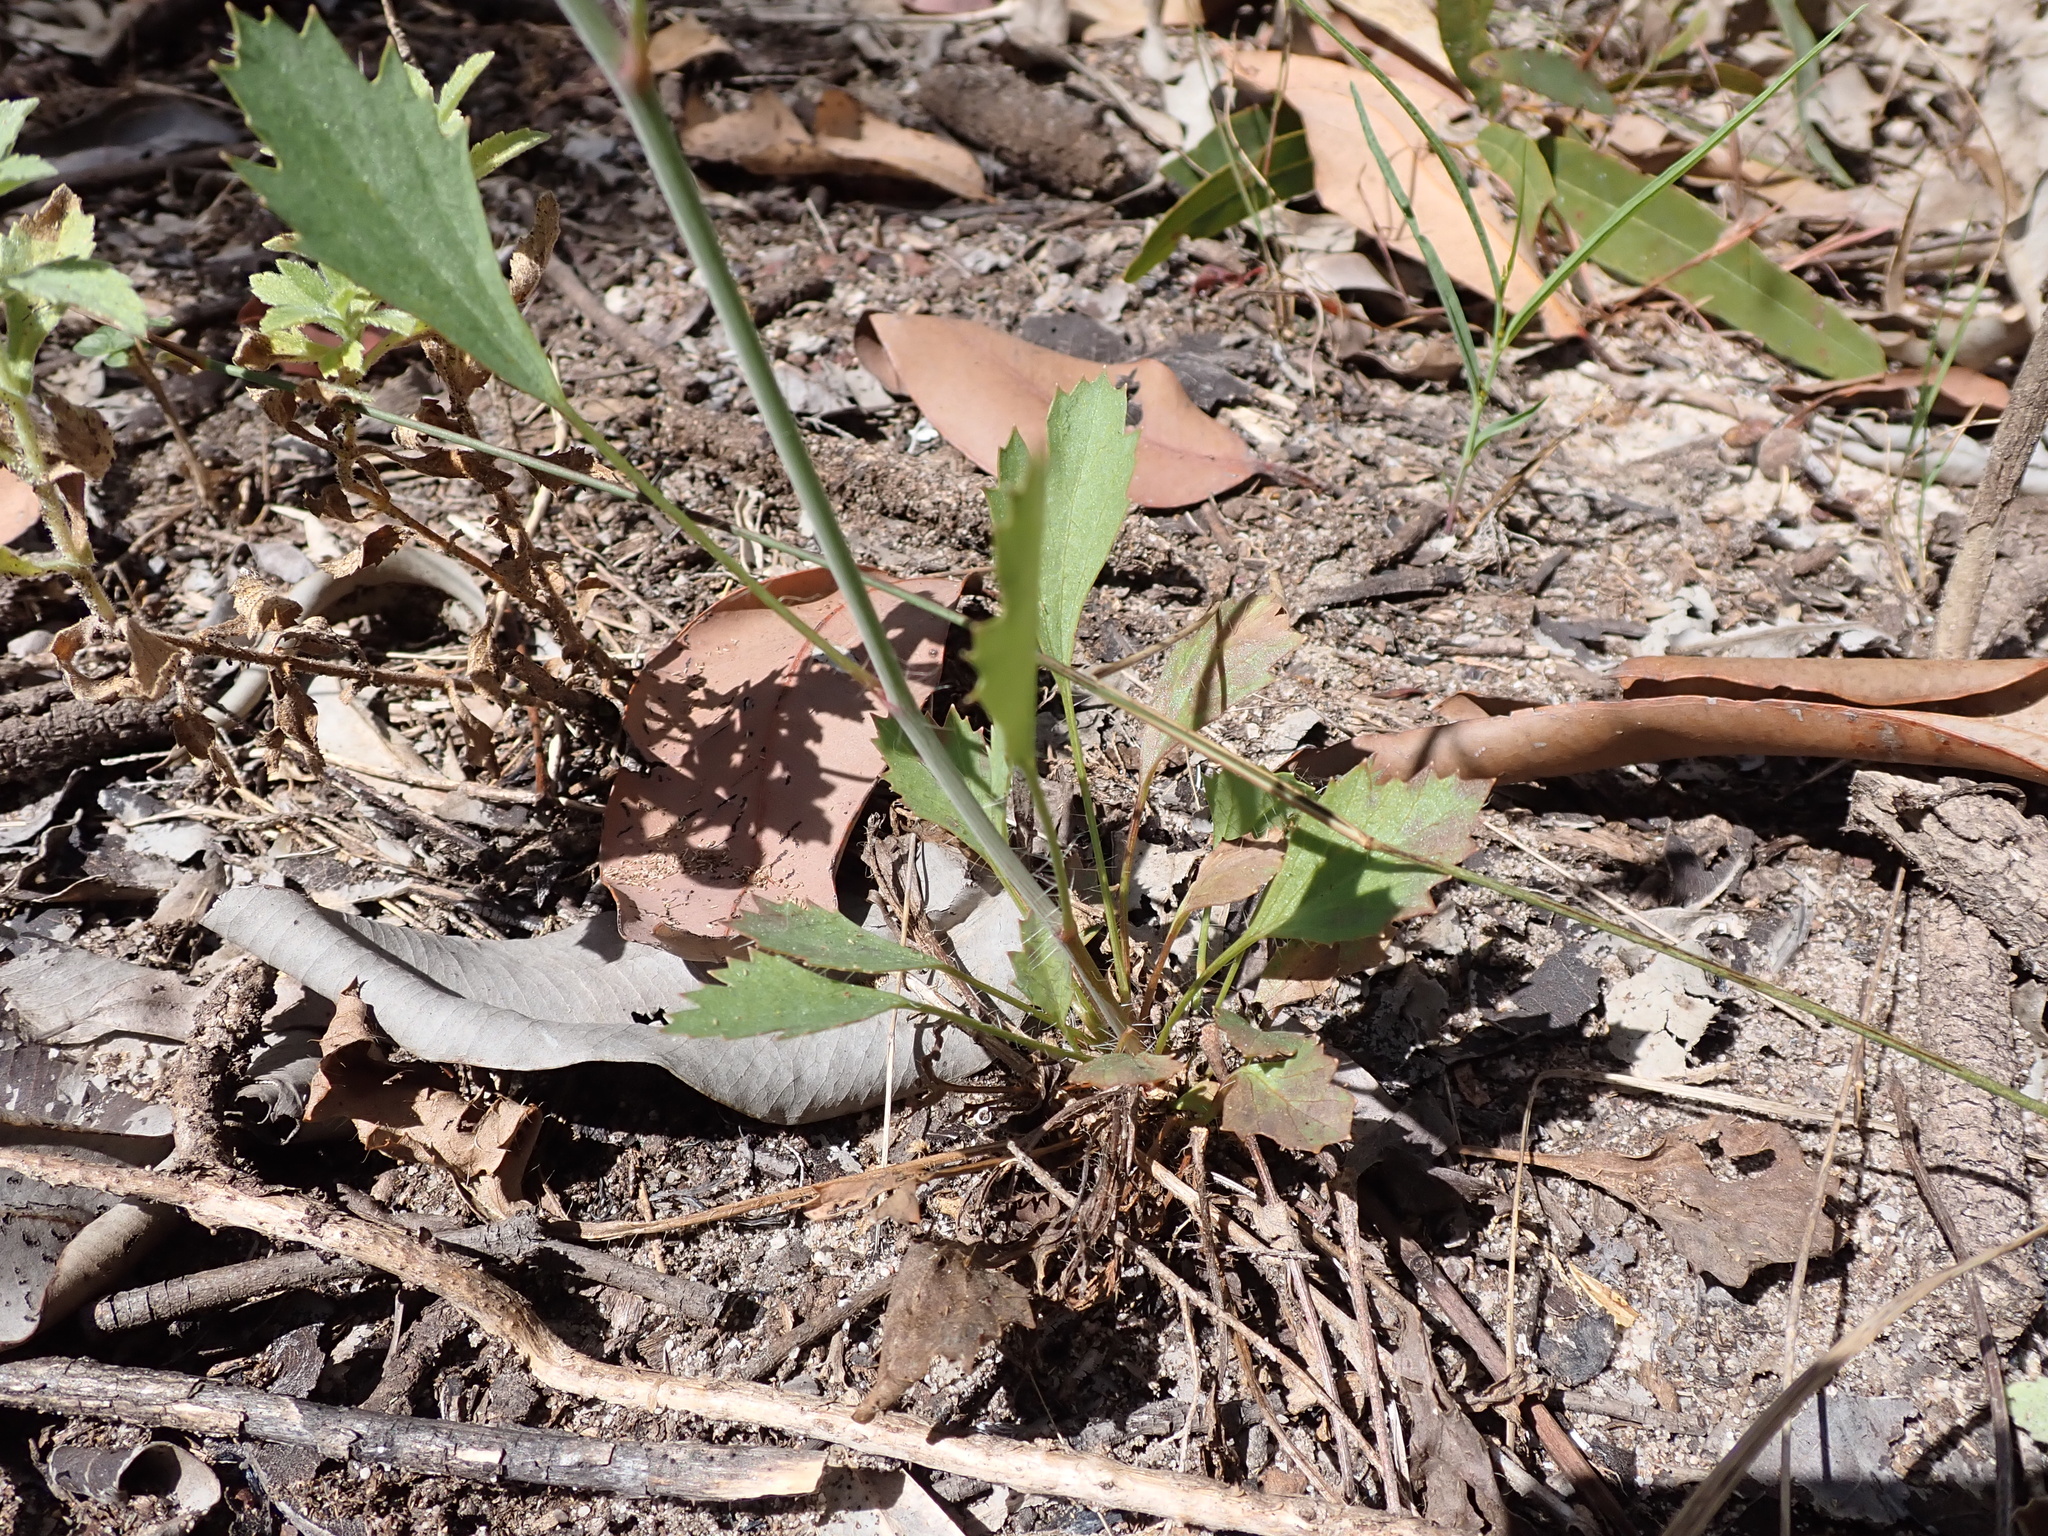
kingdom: Plantae
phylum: Tracheophyta
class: Magnoliopsida
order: Apiales
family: Araliaceae
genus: Trachymene
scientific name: Trachymene microcephala
